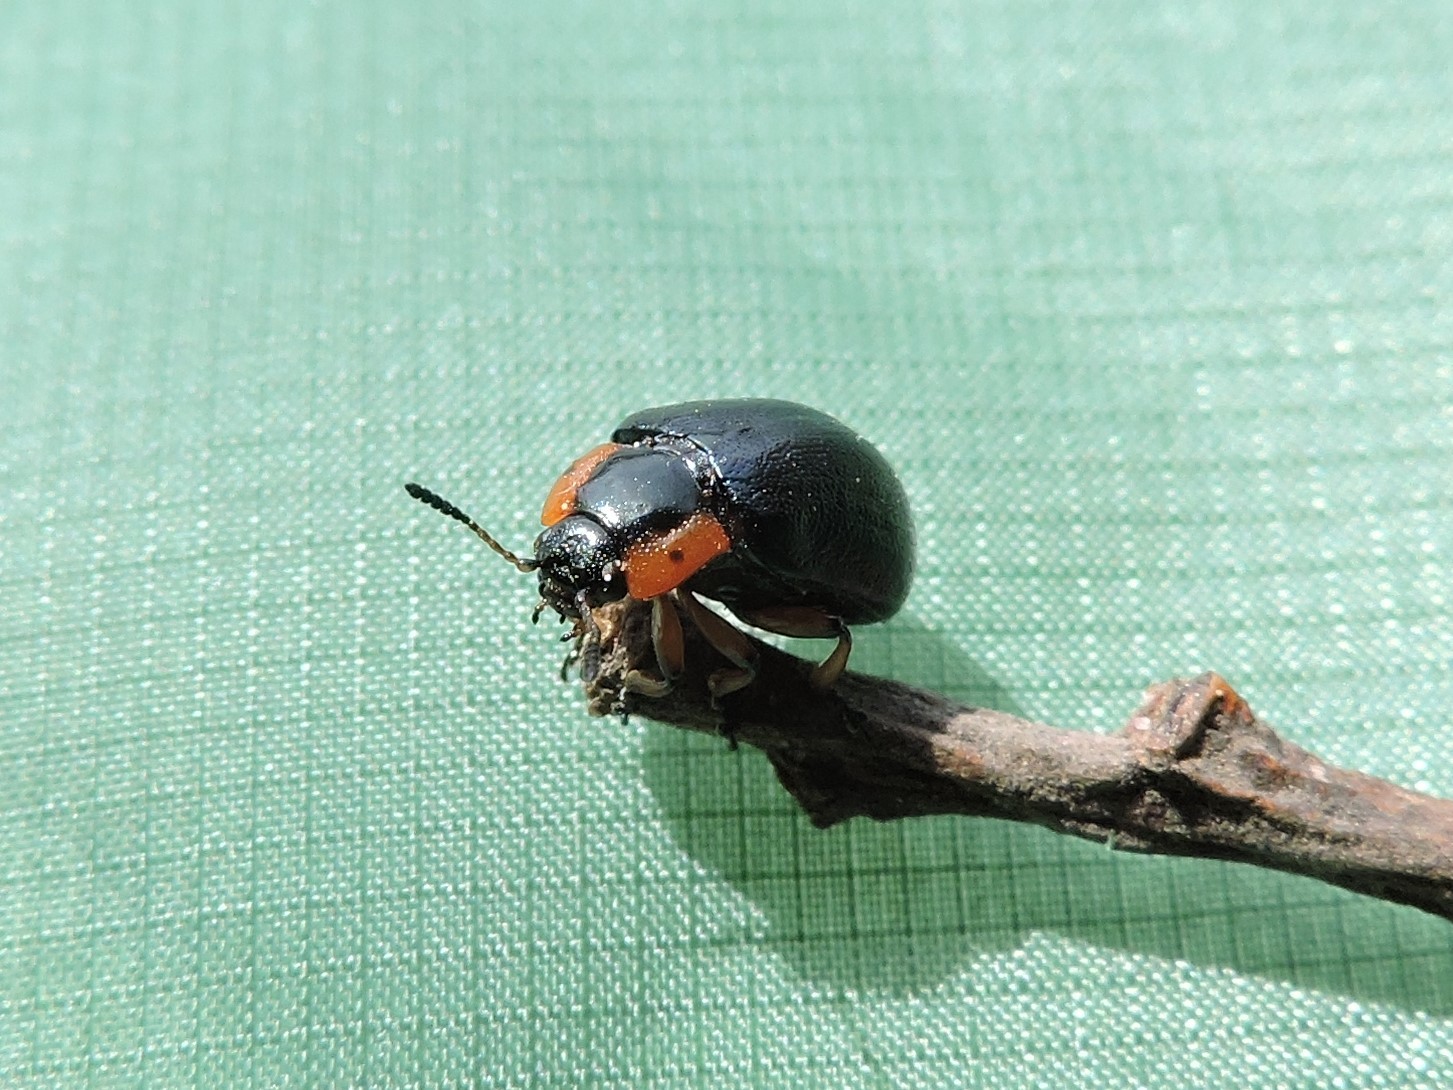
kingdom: Animalia
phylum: Arthropoda
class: Insecta
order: Coleoptera
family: Chrysomelidae
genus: Chrysomela
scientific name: Chrysomela collaris
